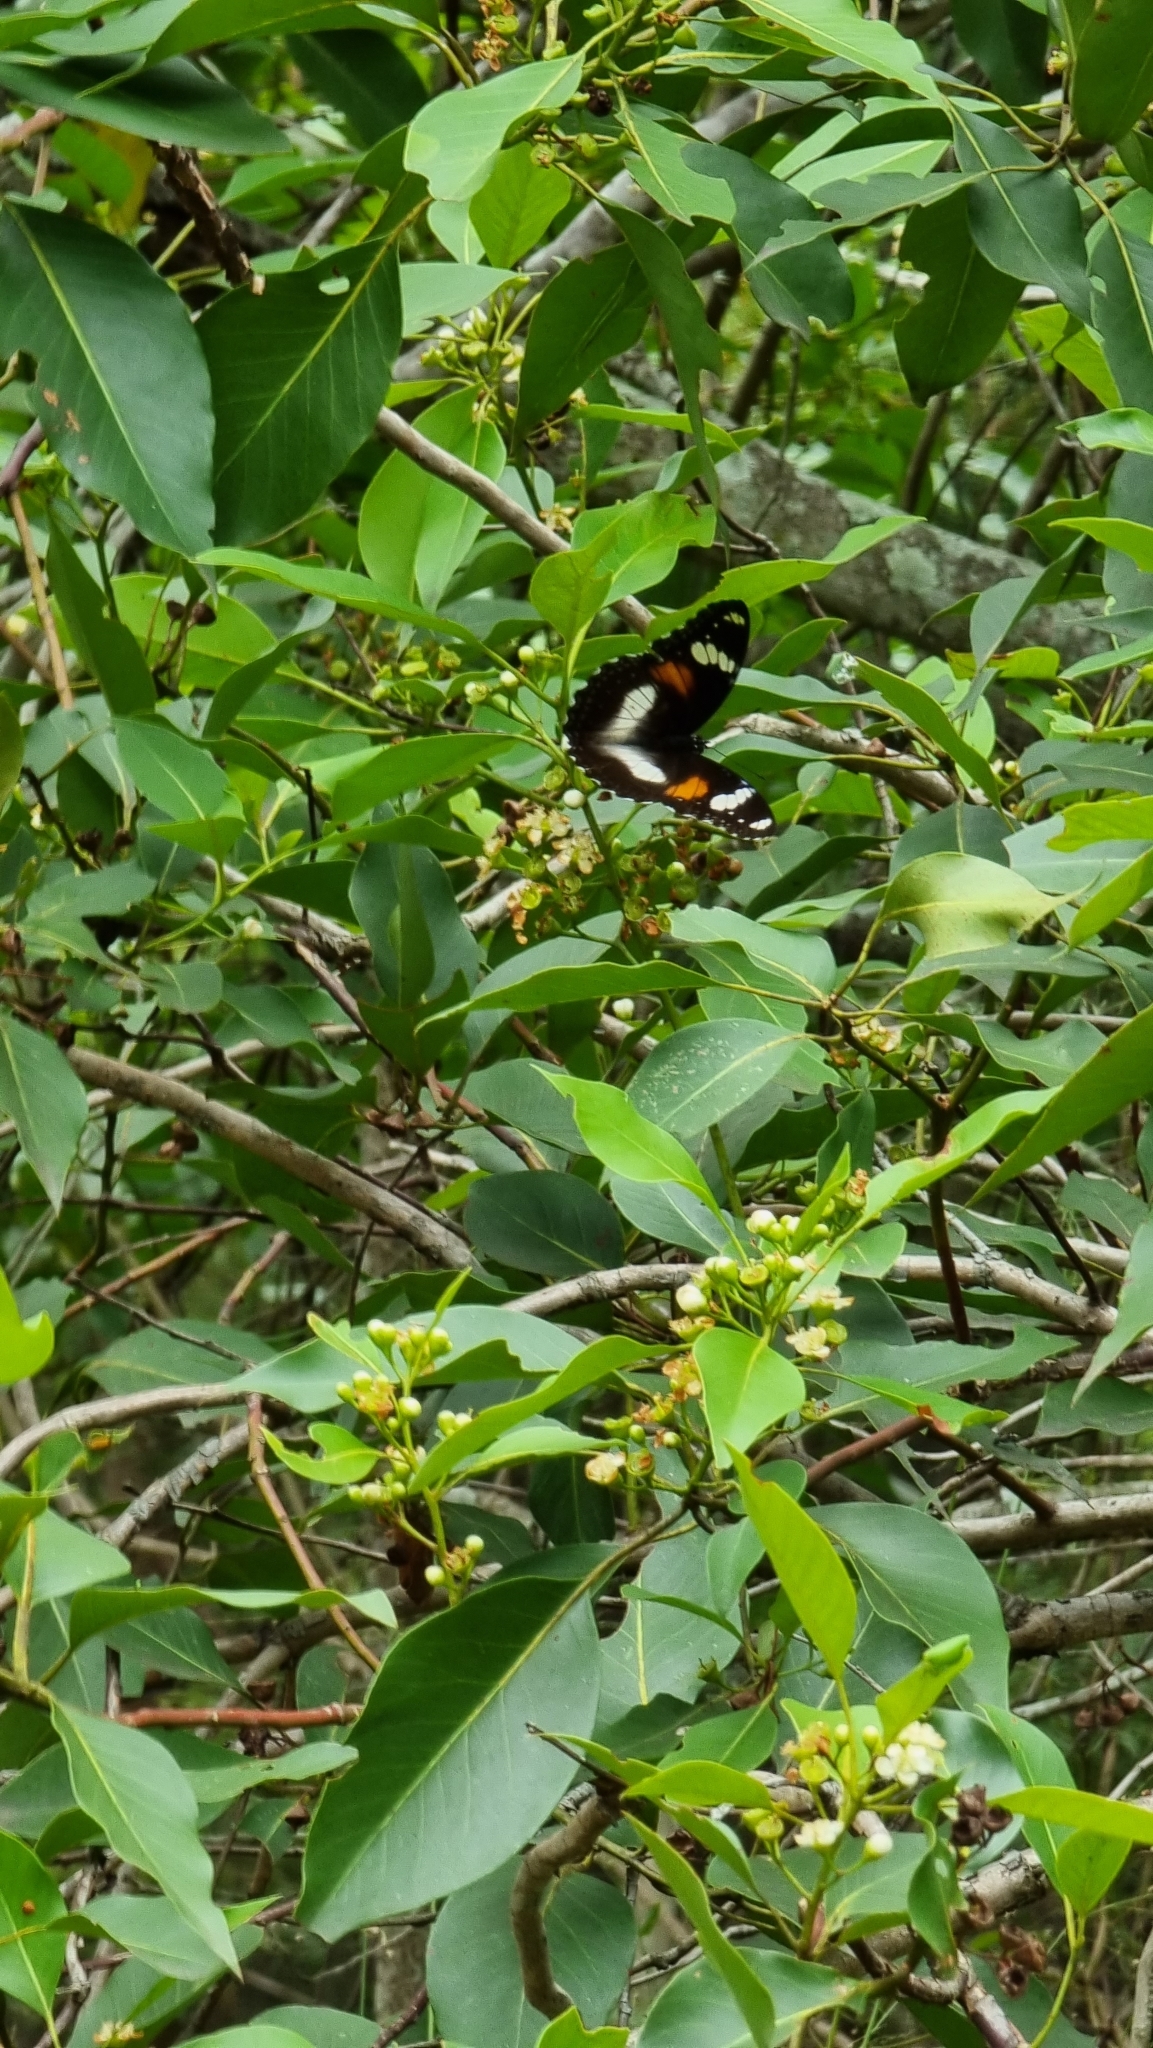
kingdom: Animalia
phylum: Arthropoda
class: Insecta
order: Lepidoptera
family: Nymphalidae
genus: Hypolimnas
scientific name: Hypolimnas bolina
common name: Great eggfly
